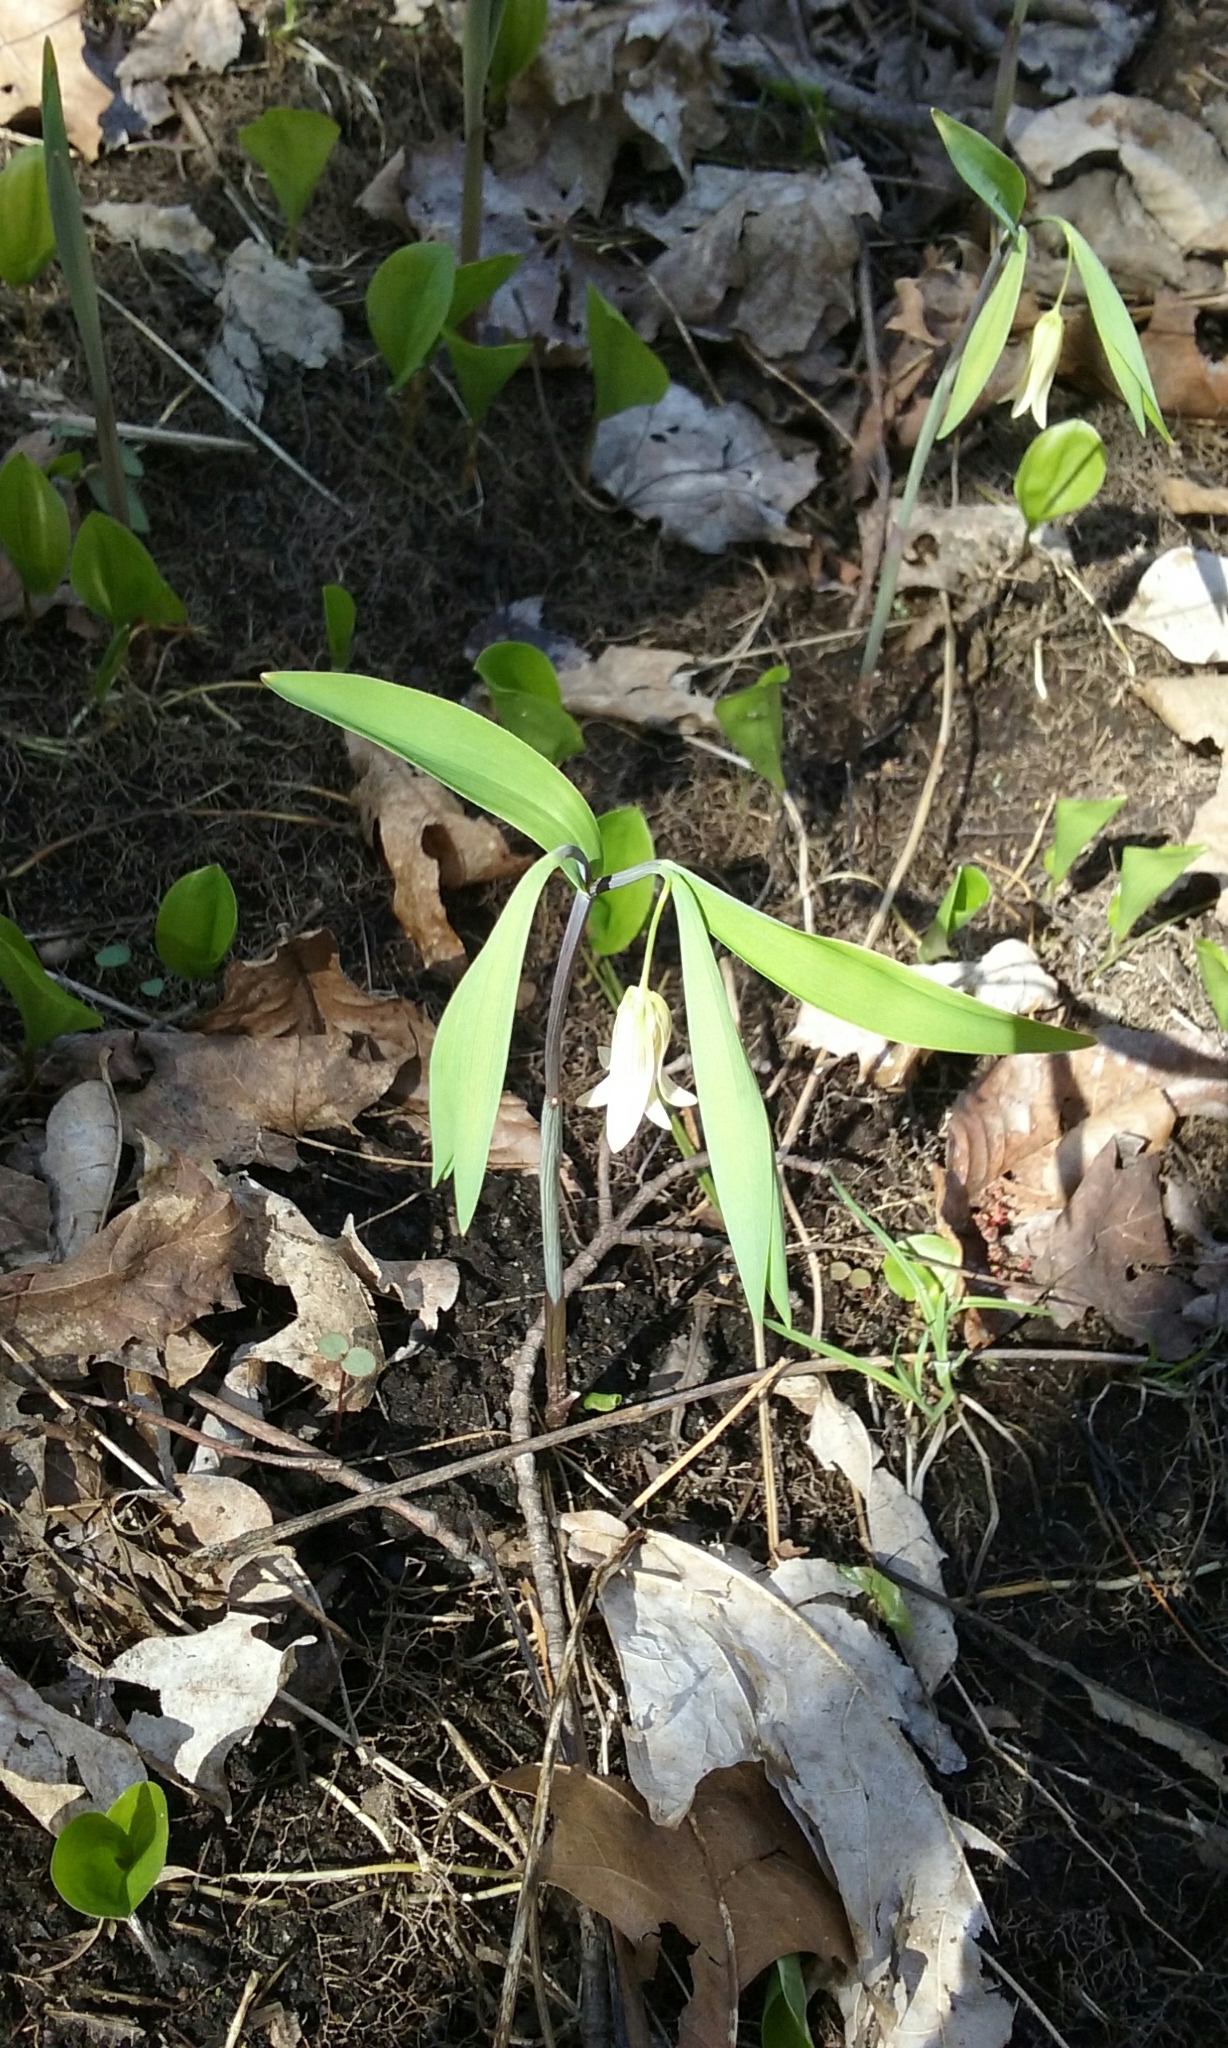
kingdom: Plantae
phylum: Tracheophyta
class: Liliopsida
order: Liliales
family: Colchicaceae
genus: Uvularia
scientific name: Uvularia sessilifolia
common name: Straw-lily
